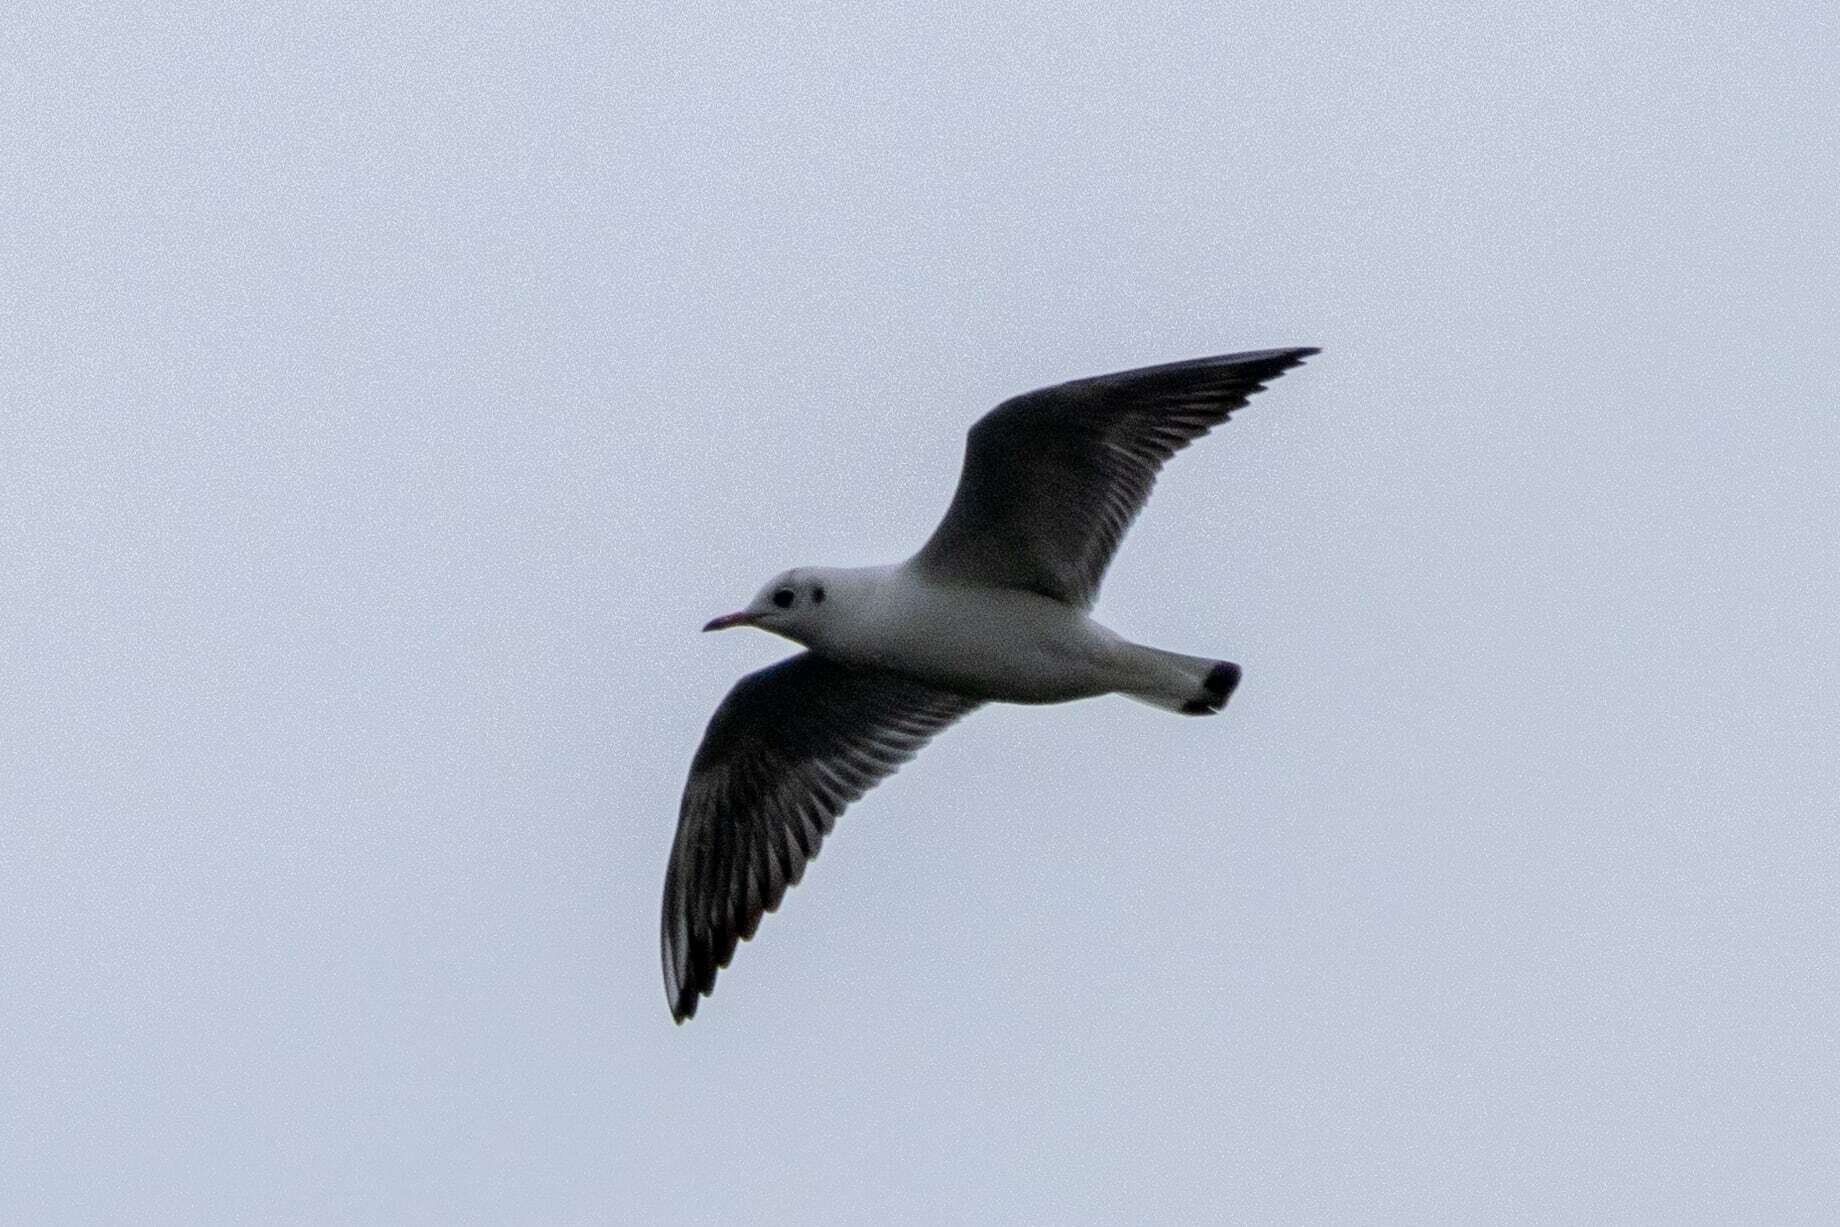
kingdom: Animalia
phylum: Chordata
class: Aves
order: Charadriiformes
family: Laridae
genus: Chroicocephalus
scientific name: Chroicocephalus ridibundus
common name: Black-headed gull
